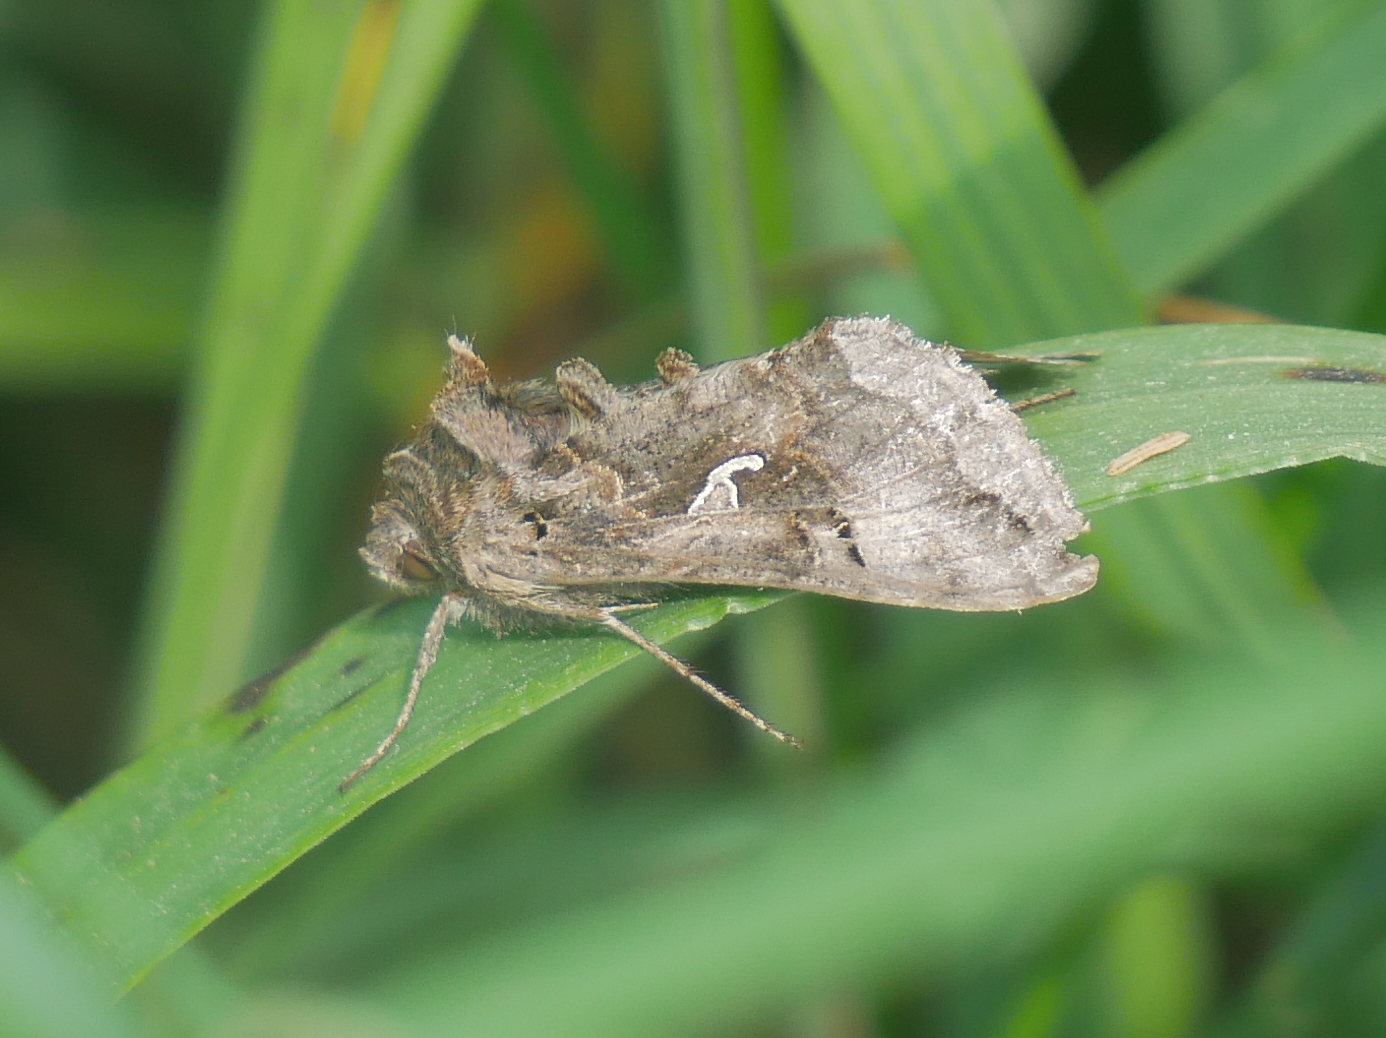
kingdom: Animalia
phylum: Arthropoda
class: Insecta
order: Lepidoptera
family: Noctuidae
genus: Autographa
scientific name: Autographa gamma
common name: Silver y
